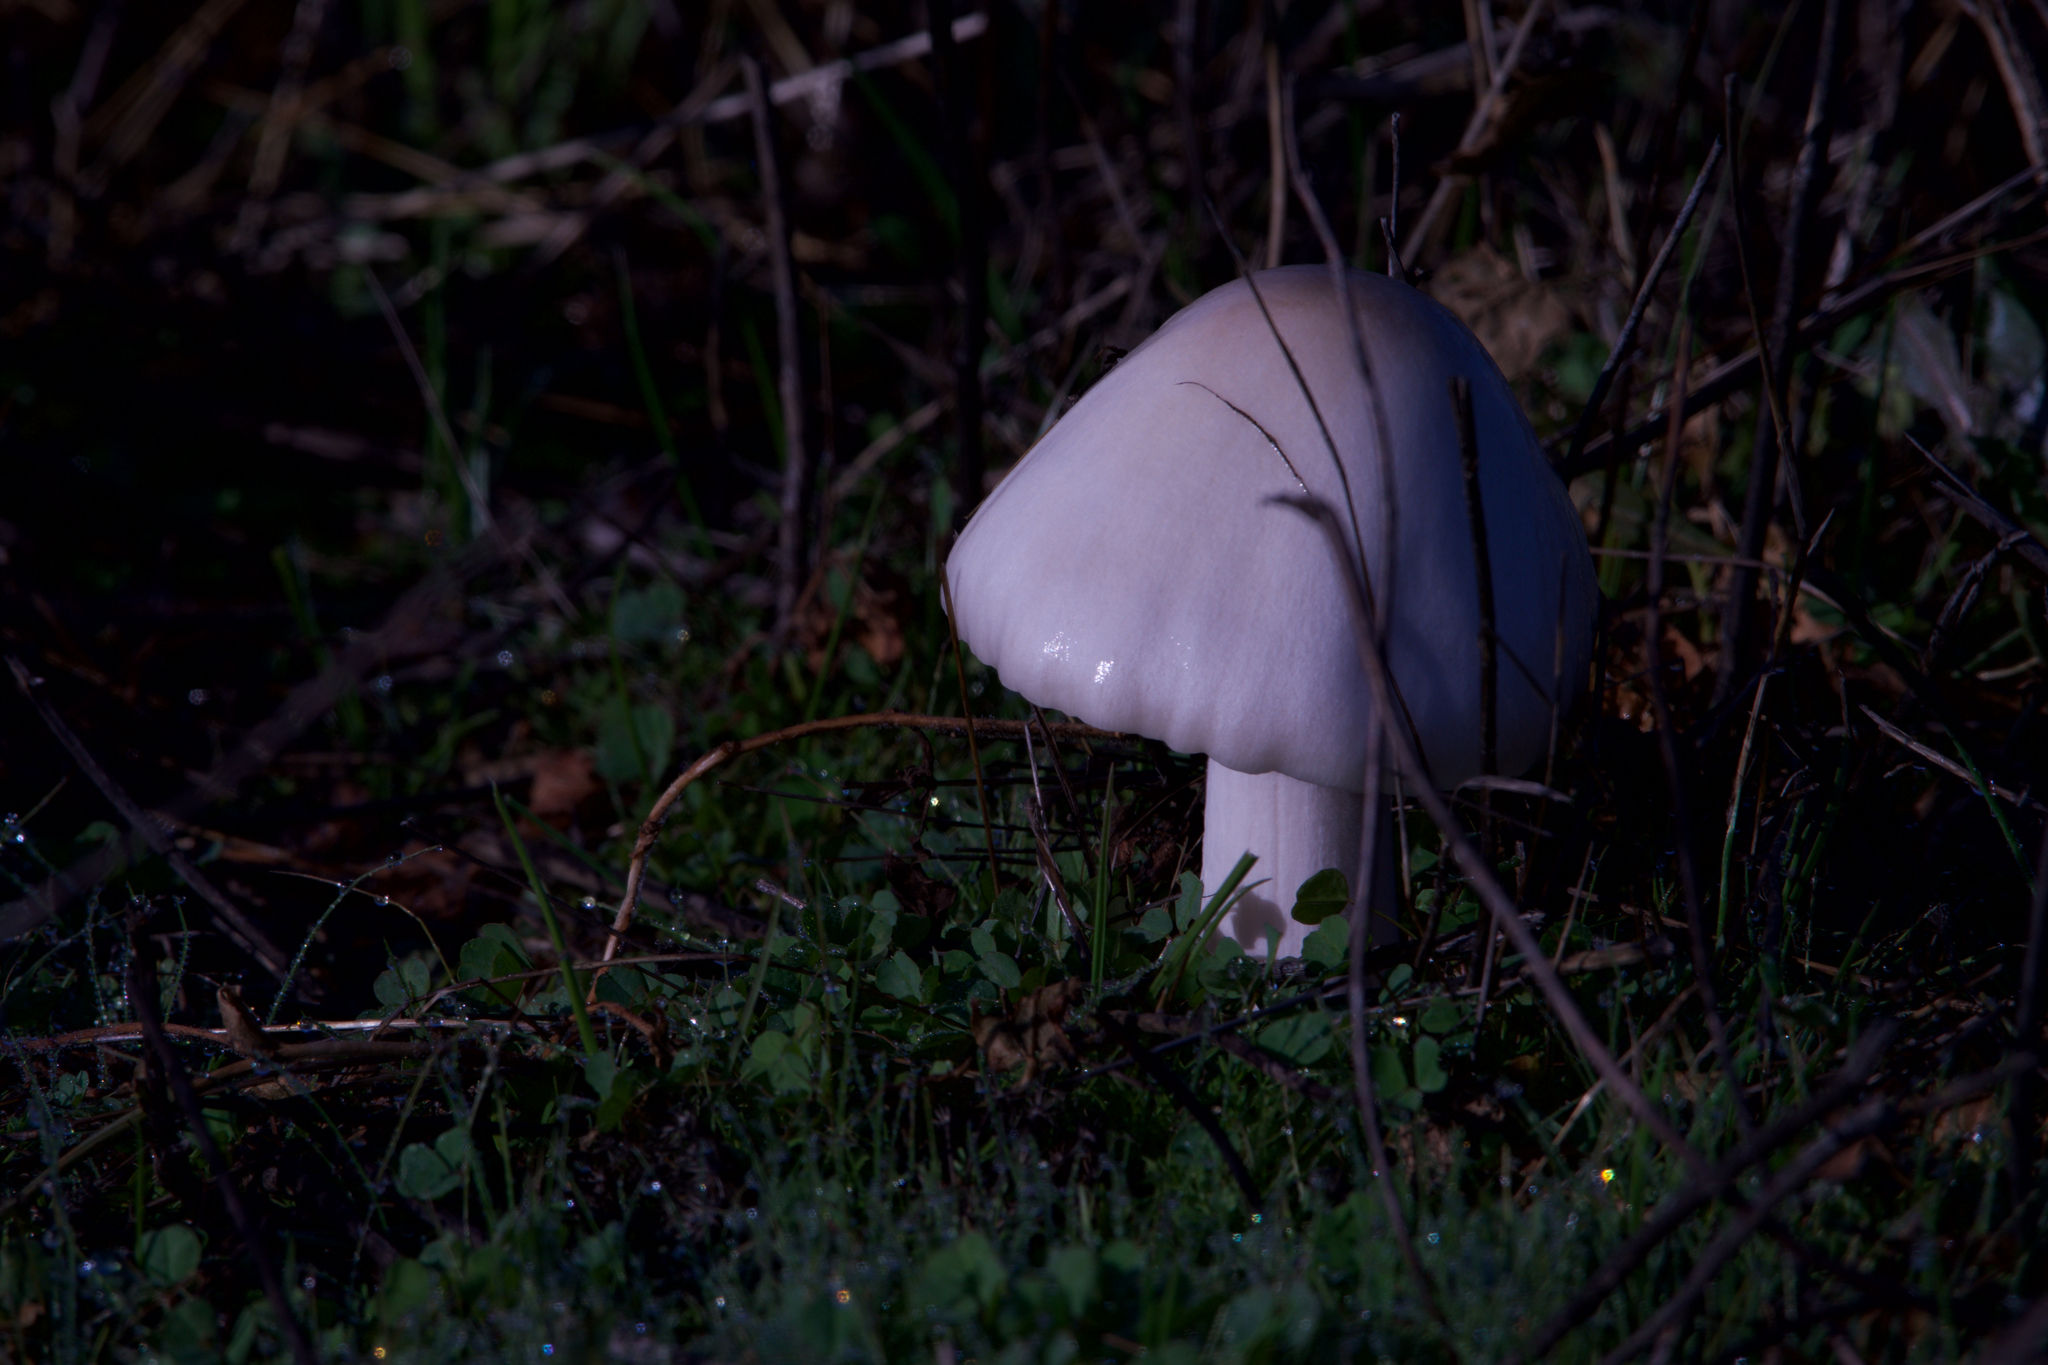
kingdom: Fungi
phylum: Basidiomycota
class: Agaricomycetes
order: Agaricales
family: Pluteaceae
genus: Volvopluteus
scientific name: Volvopluteus gloiocephalus
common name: Stubble rosegill
